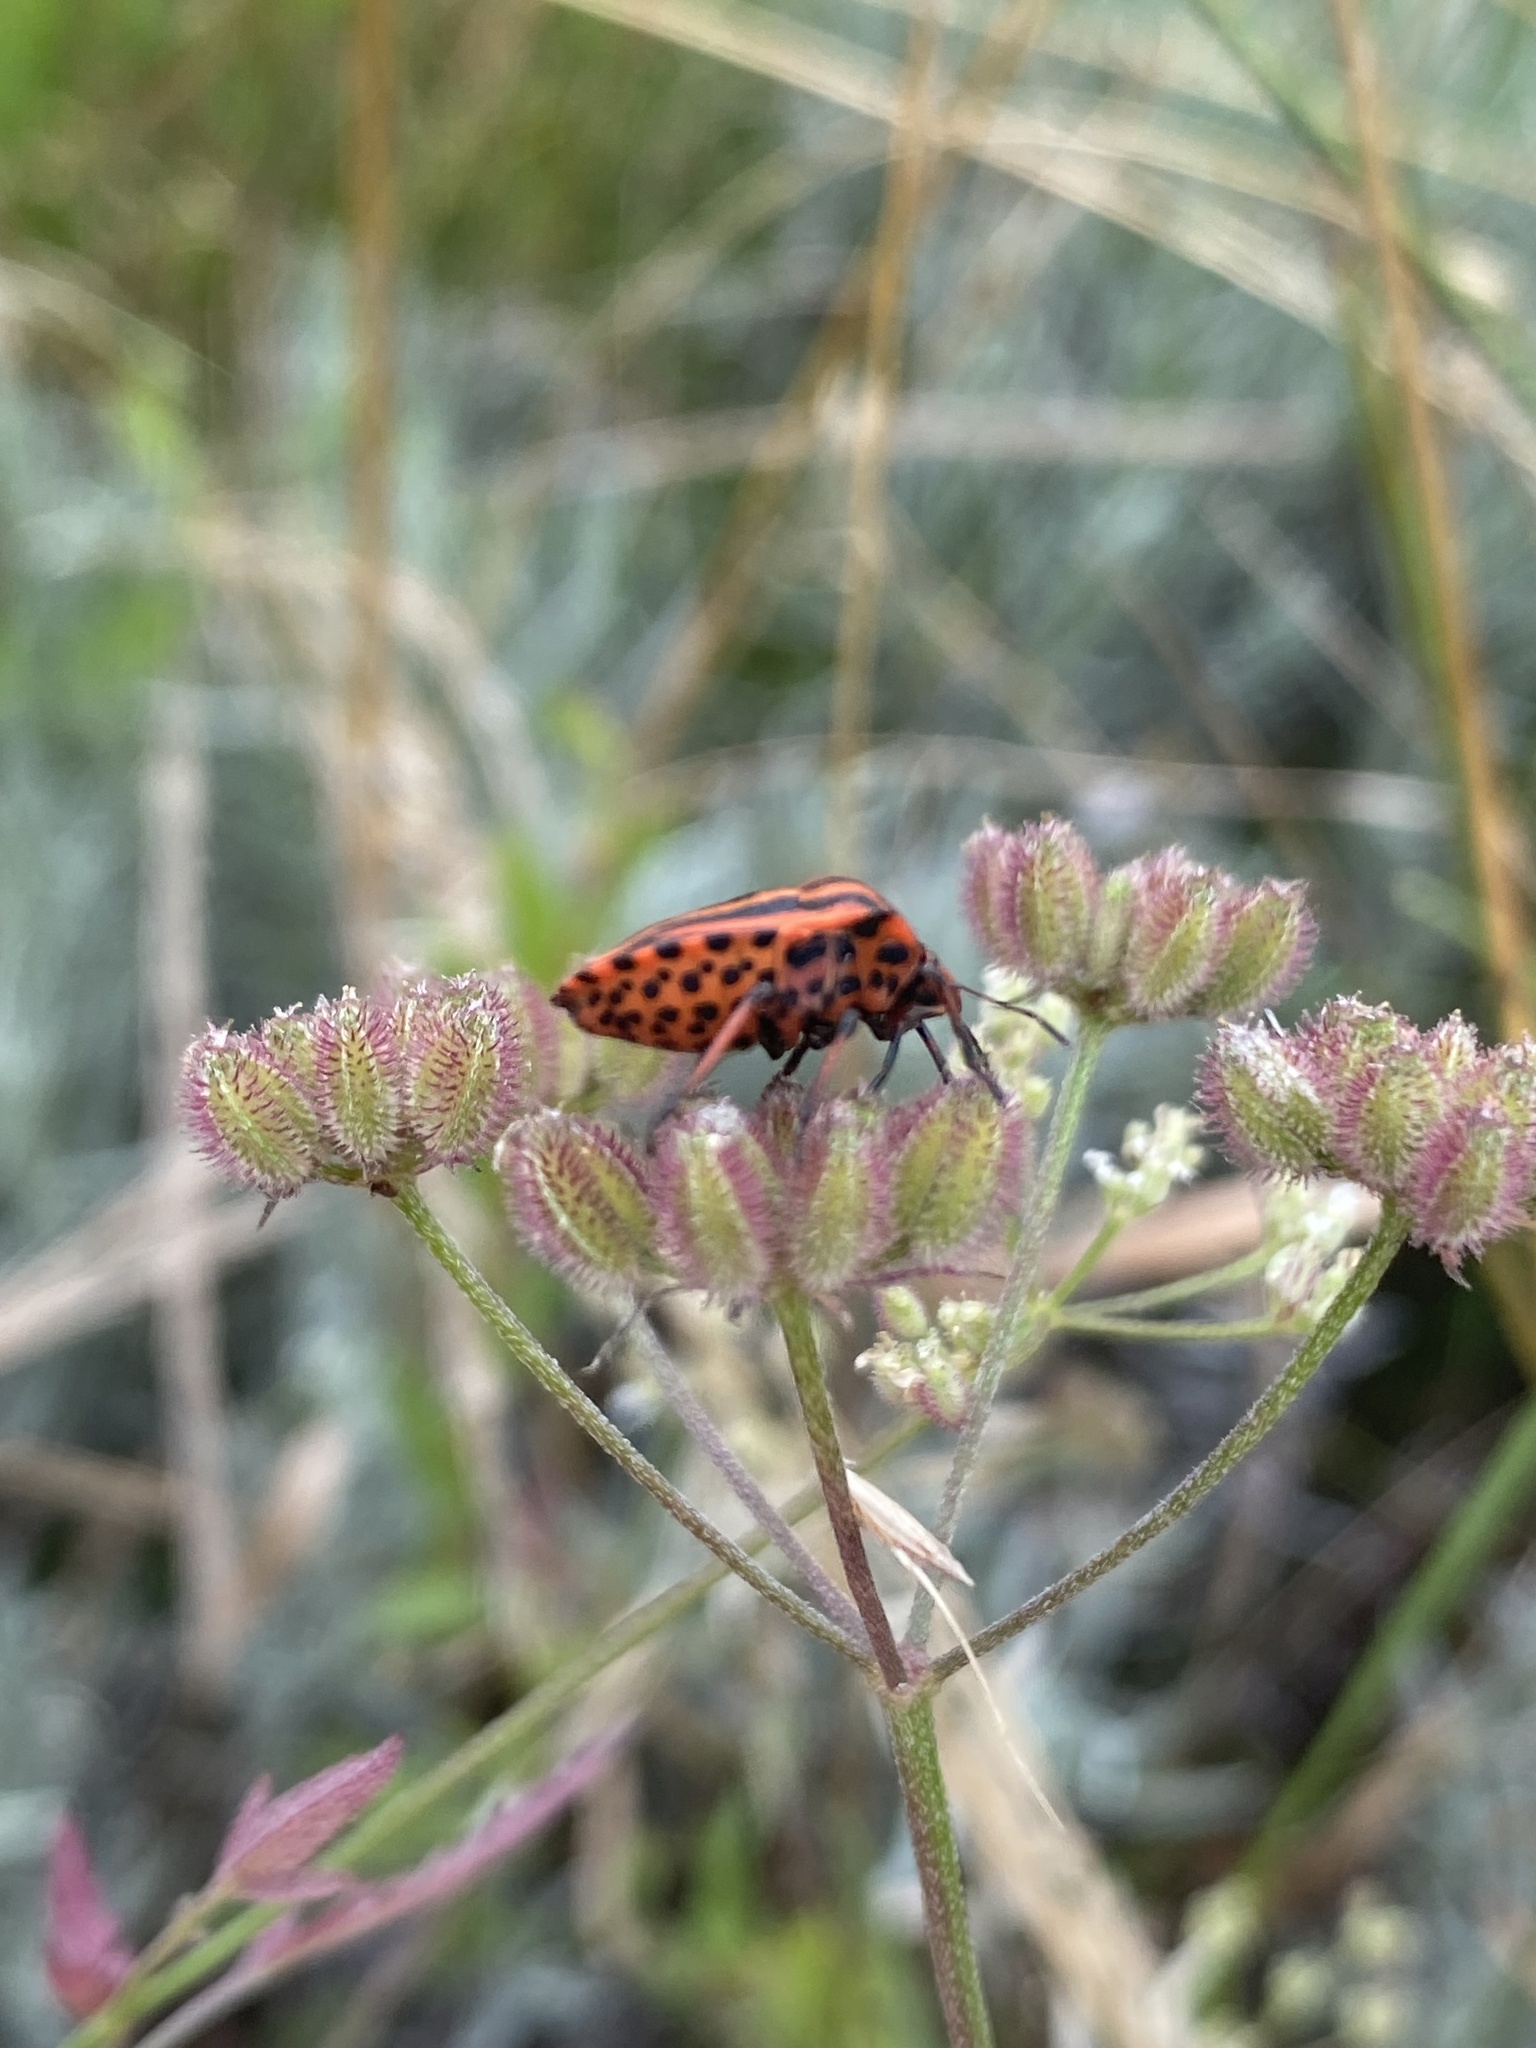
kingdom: Animalia
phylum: Arthropoda
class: Insecta
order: Hemiptera
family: Pentatomidae
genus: Graphosoma
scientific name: Graphosoma italicum
